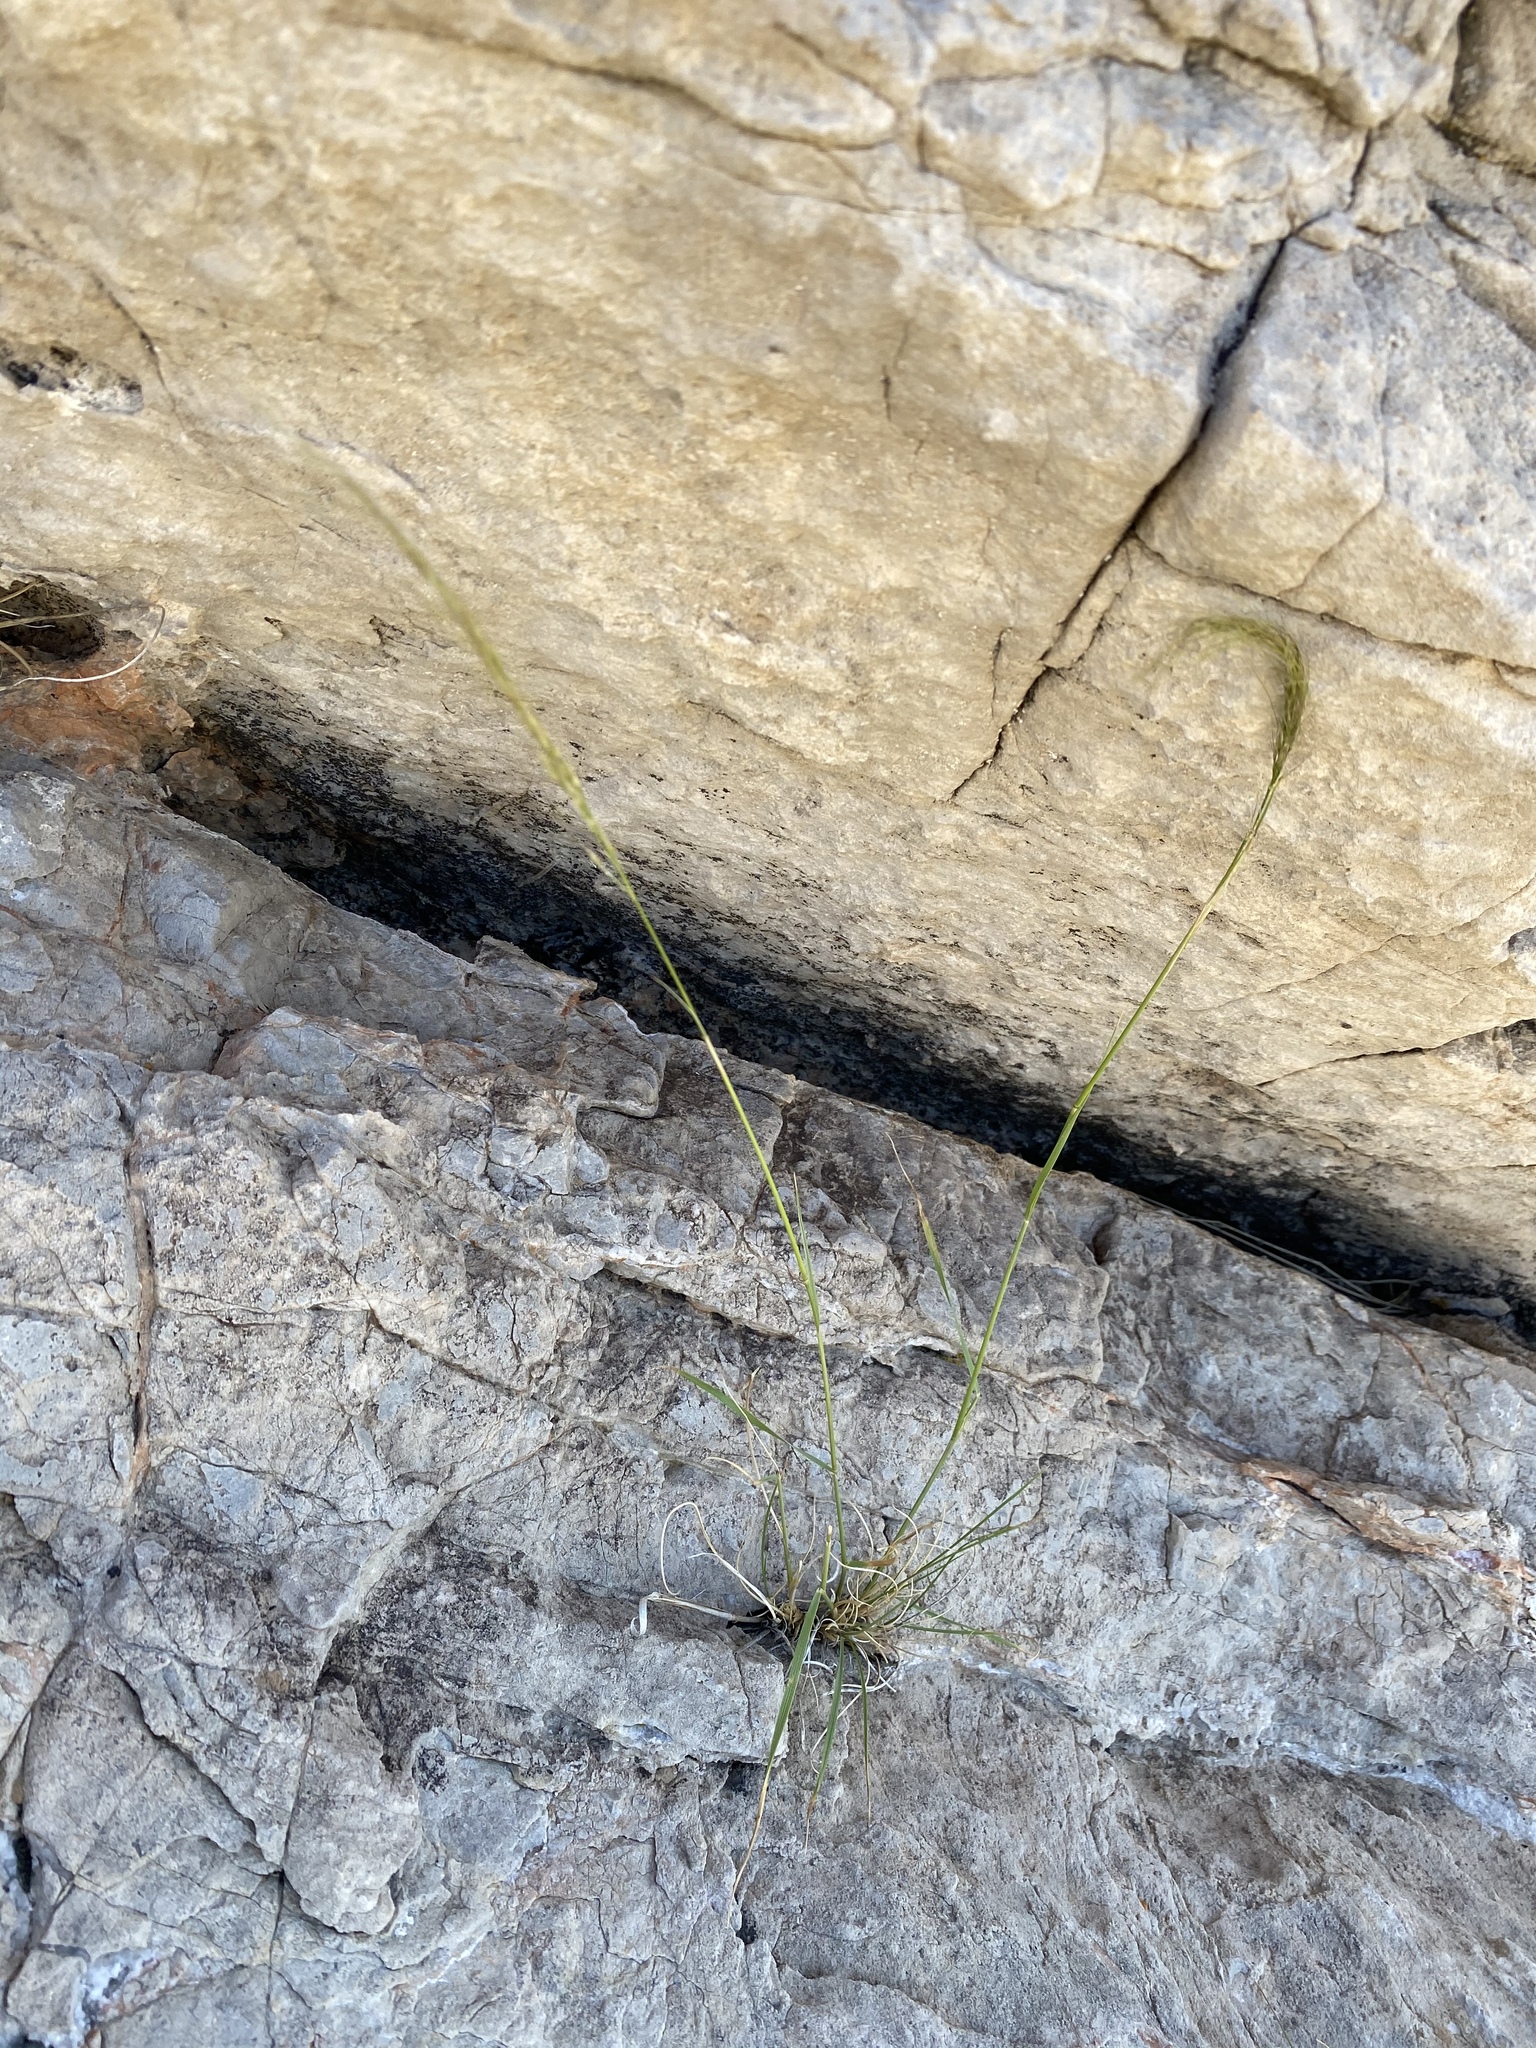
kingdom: Plantae
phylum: Tracheophyta
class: Liliopsida
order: Poales
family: Poaceae
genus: Eriocoma
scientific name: Eriocoma arida
